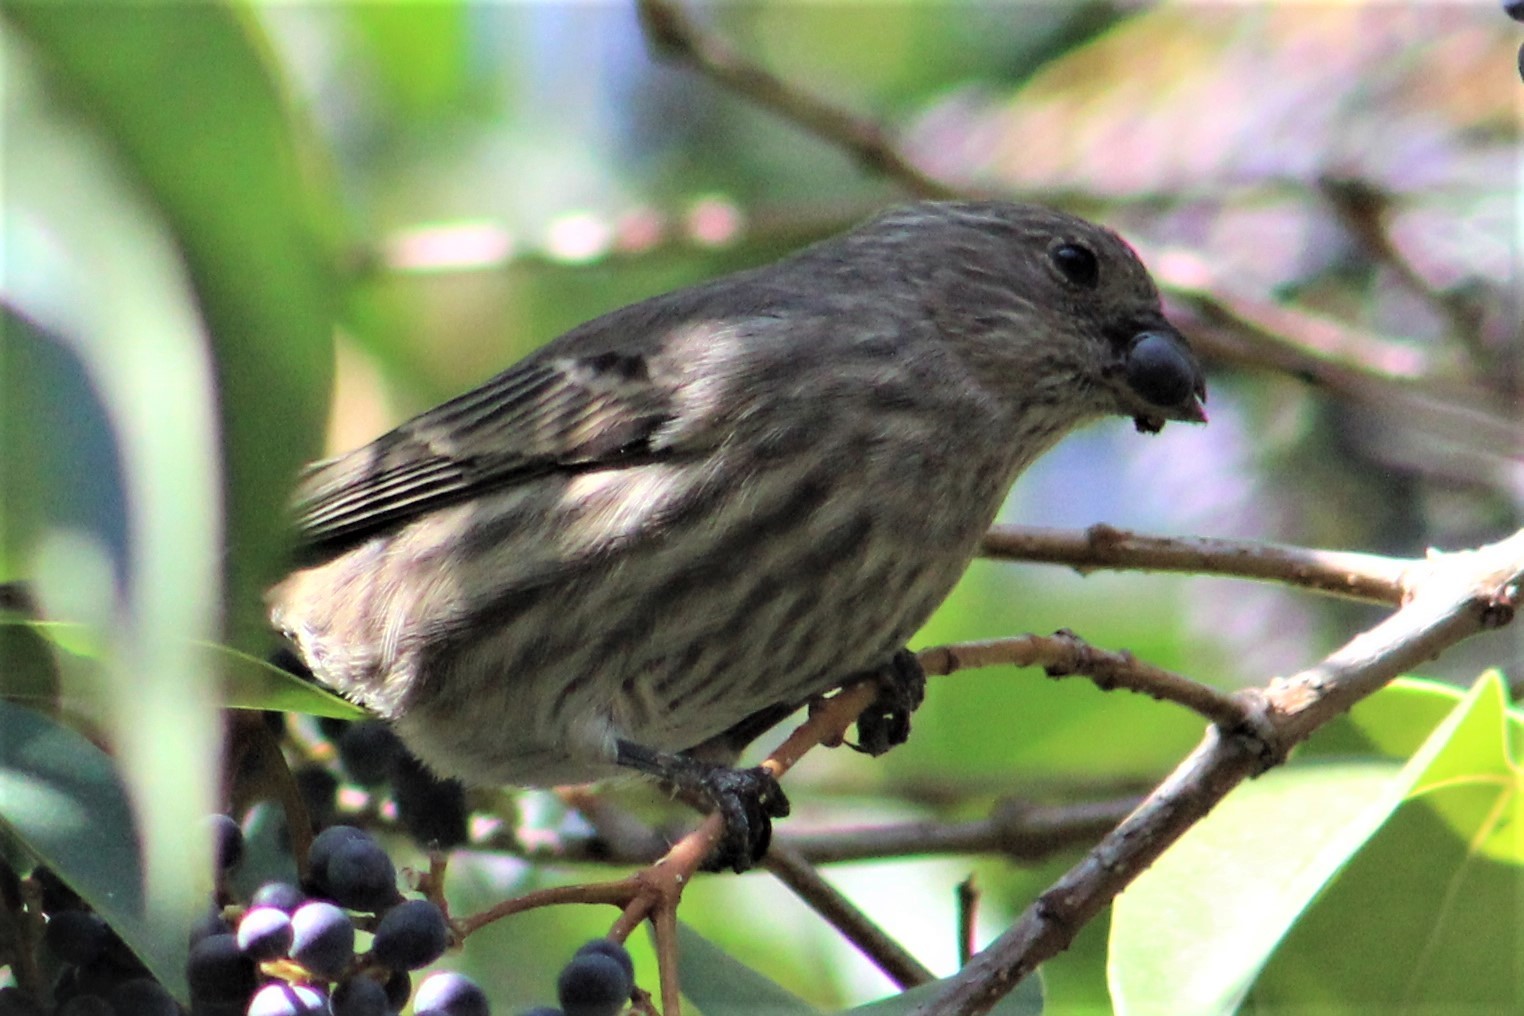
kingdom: Animalia
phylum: Chordata
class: Aves
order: Passeriformes
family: Fringillidae
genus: Haemorhous
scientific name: Haemorhous mexicanus
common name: House finch
